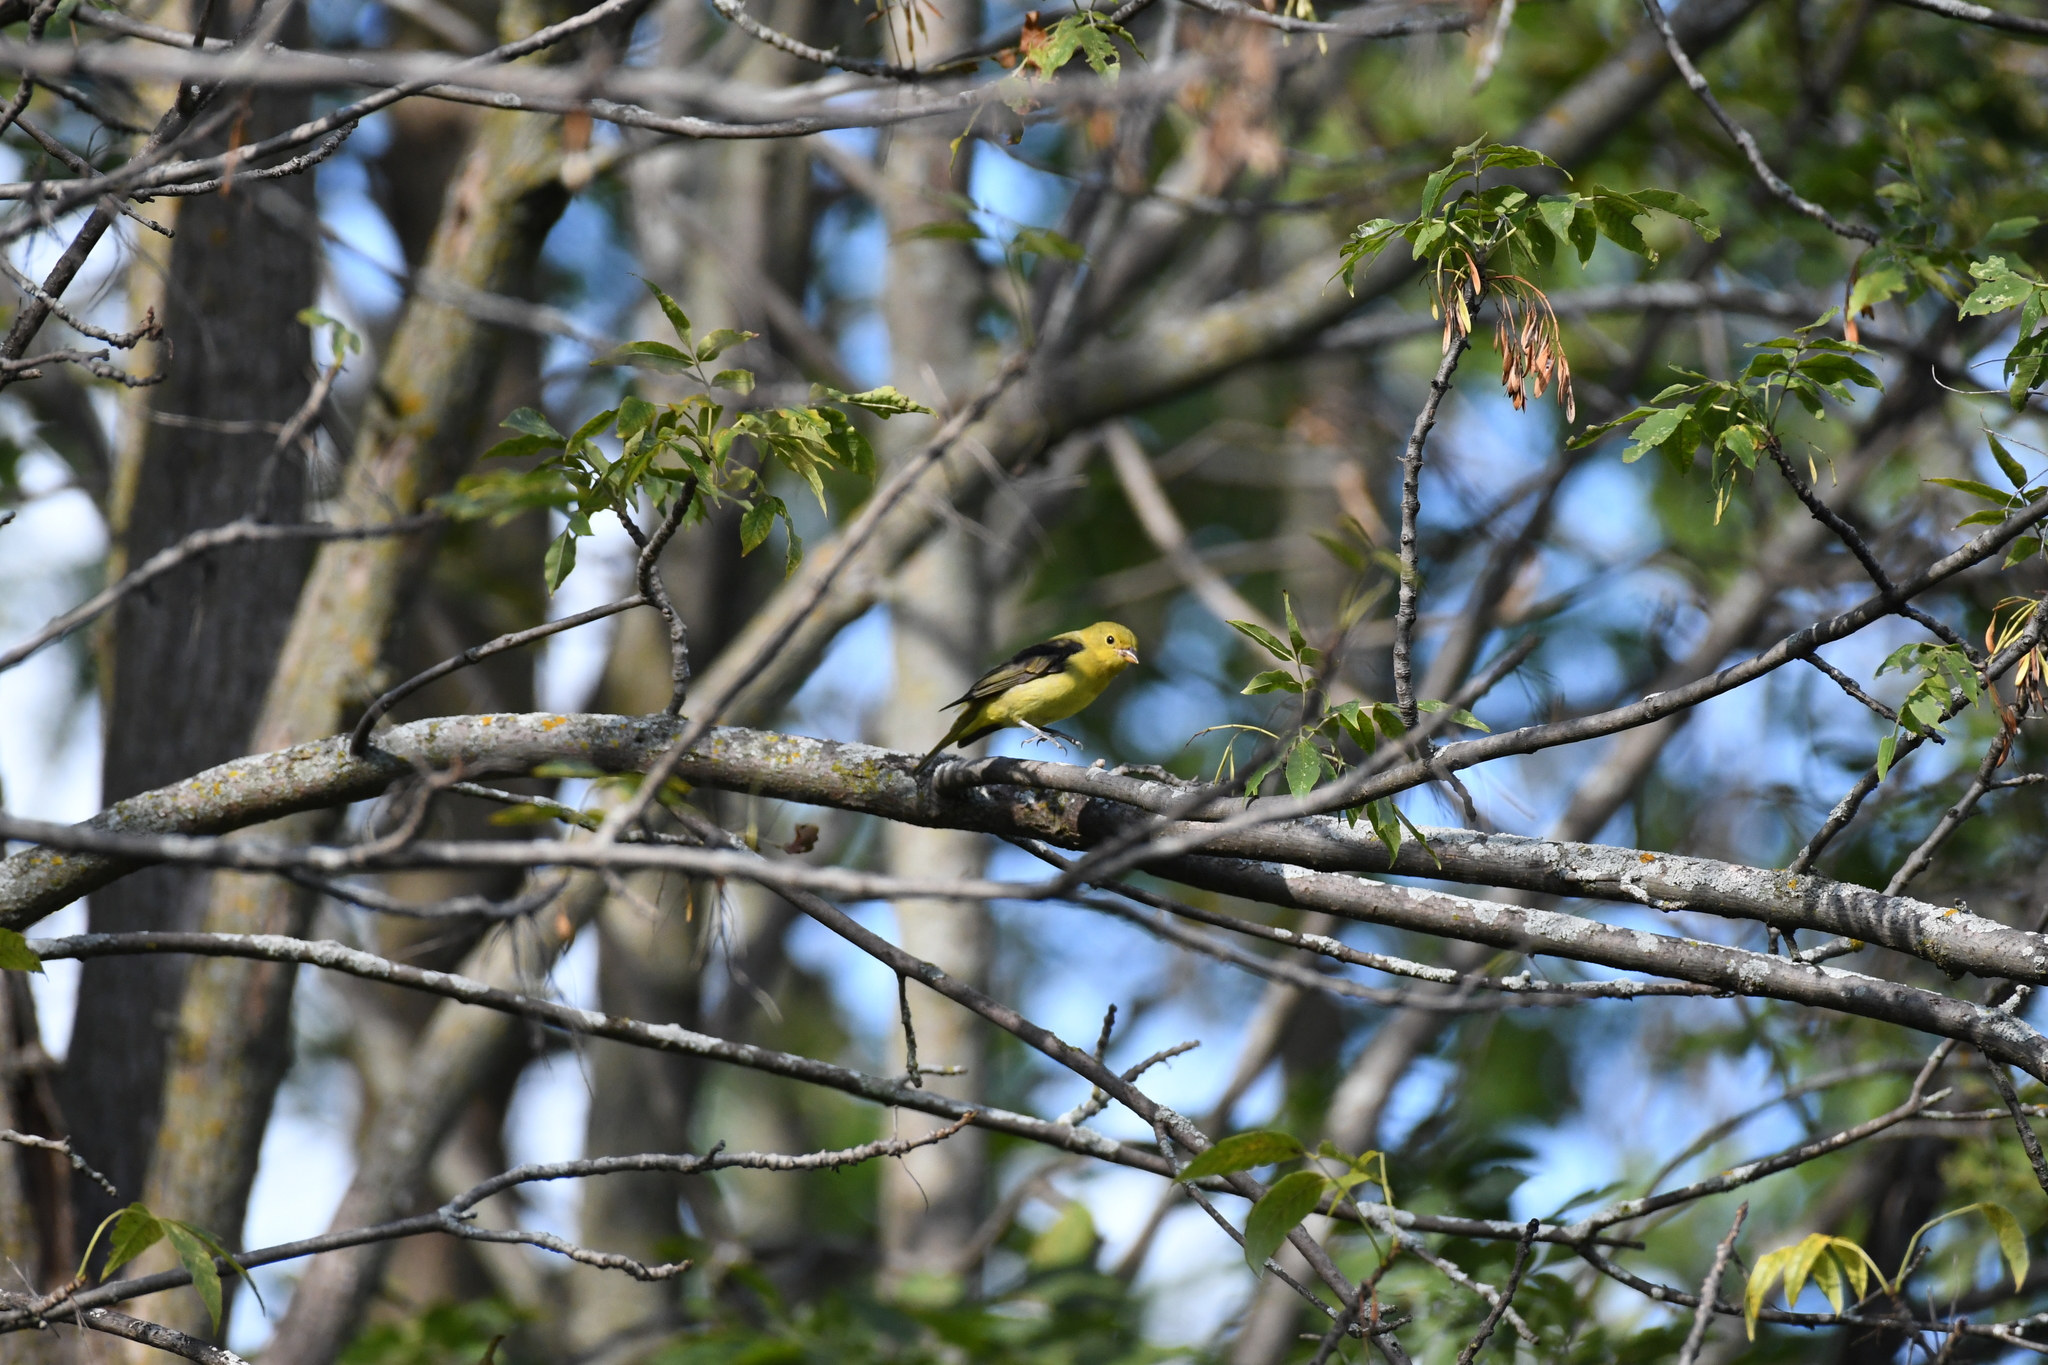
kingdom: Animalia
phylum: Chordata
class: Aves
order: Passeriformes
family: Cardinalidae
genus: Piranga
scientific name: Piranga olivacea
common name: Scarlet tanager
